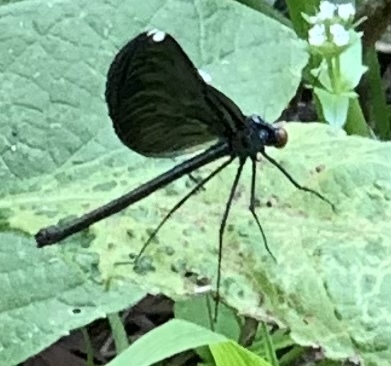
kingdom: Animalia
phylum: Arthropoda
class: Insecta
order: Odonata
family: Calopterygidae
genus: Calopteryx
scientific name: Calopteryx maculata
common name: Ebony jewelwing
